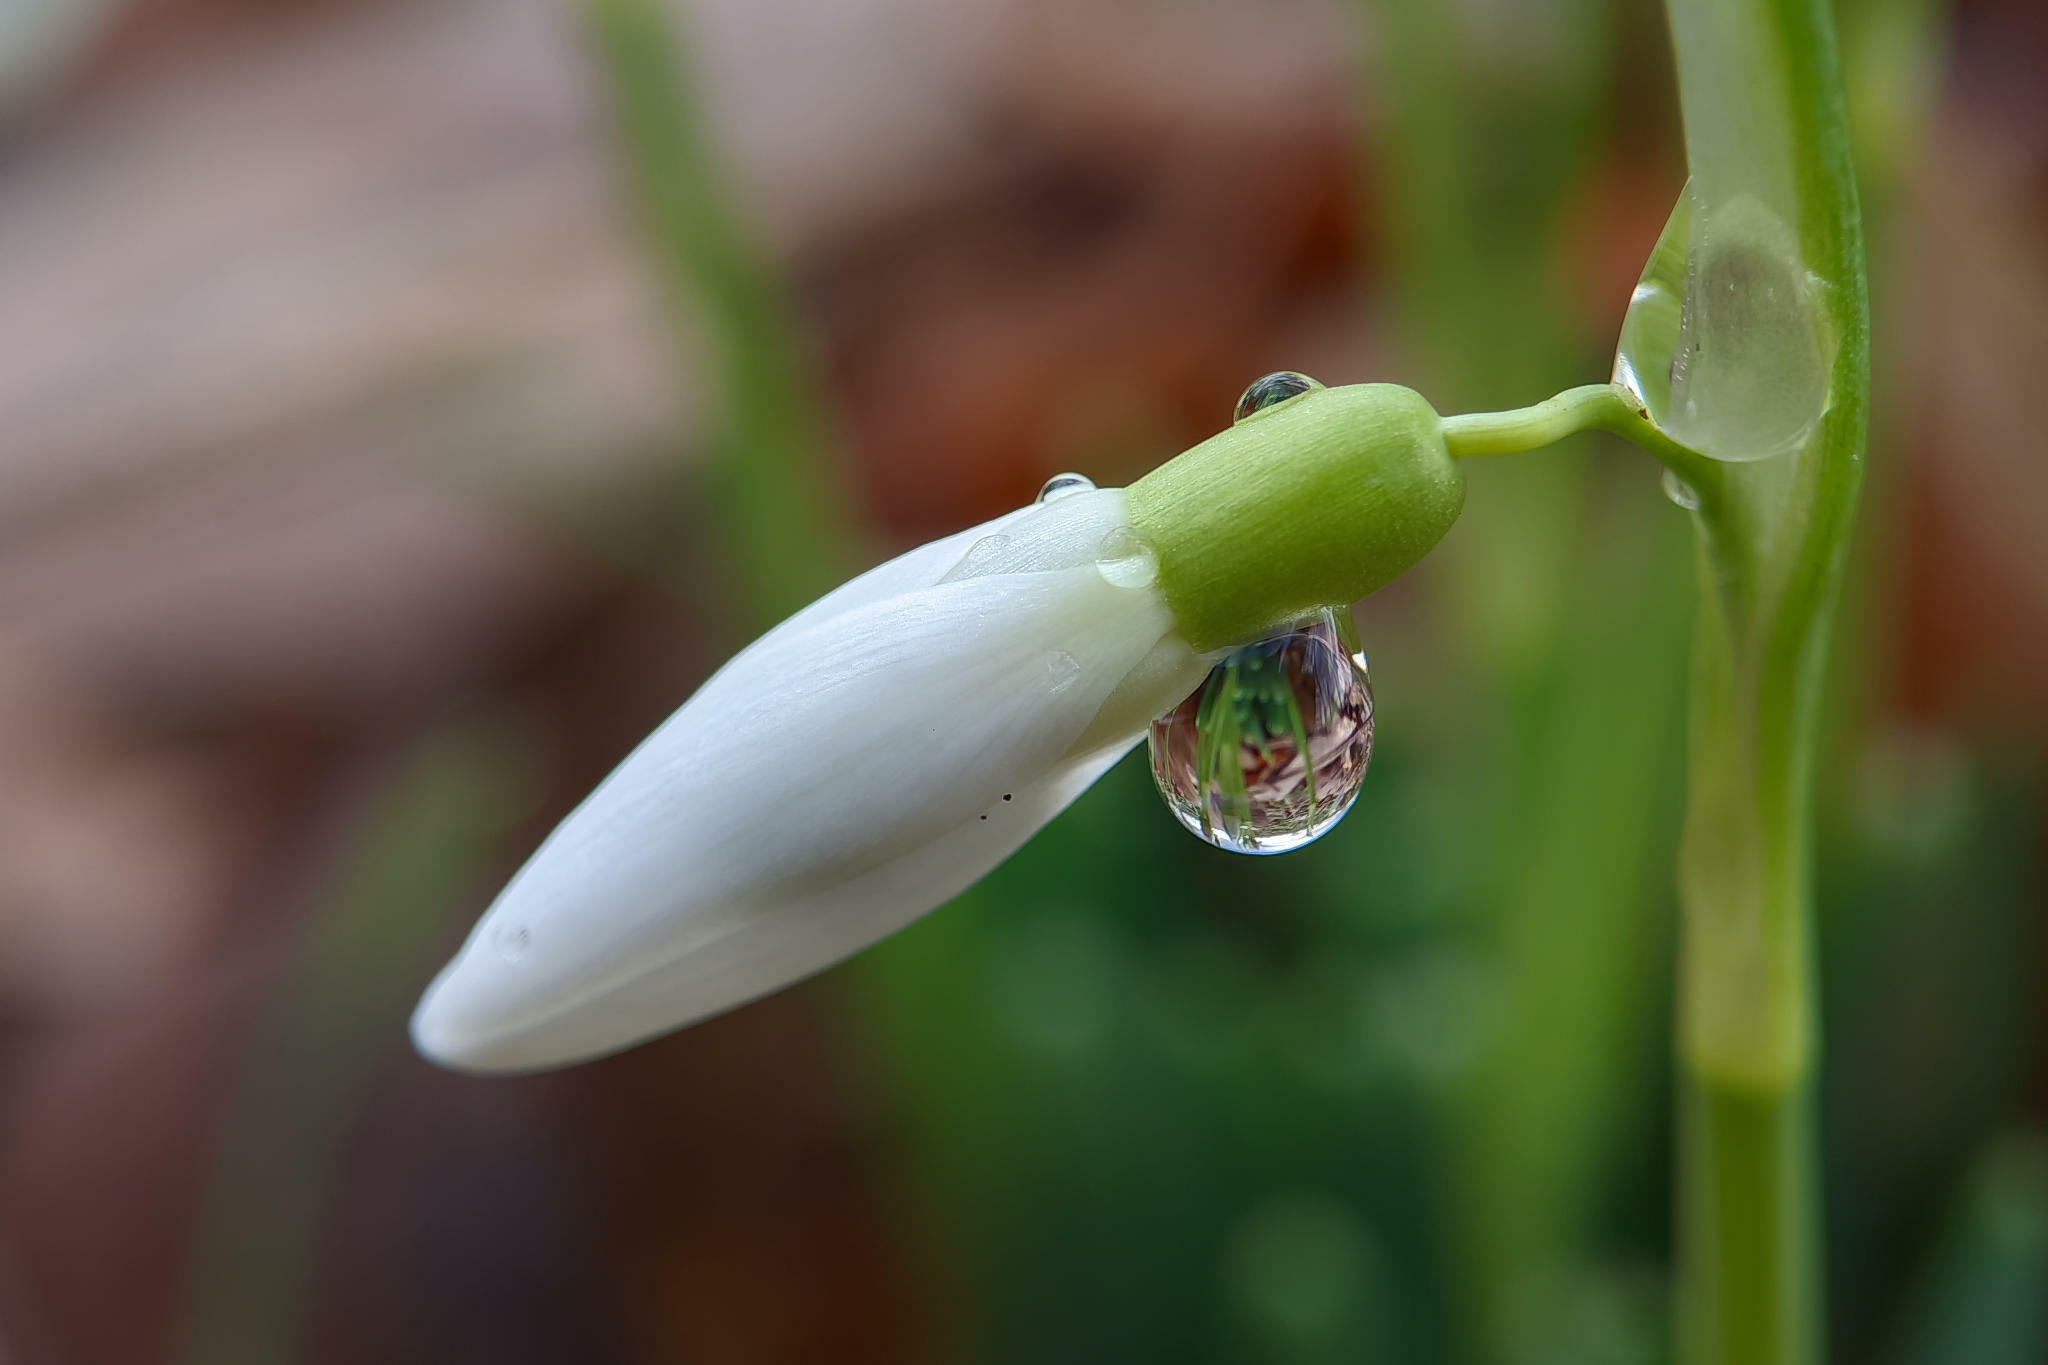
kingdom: Plantae
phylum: Tracheophyta
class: Liliopsida
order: Asparagales
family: Amaryllidaceae
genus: Galanthus
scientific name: Galanthus nivalis
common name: Snowdrop
